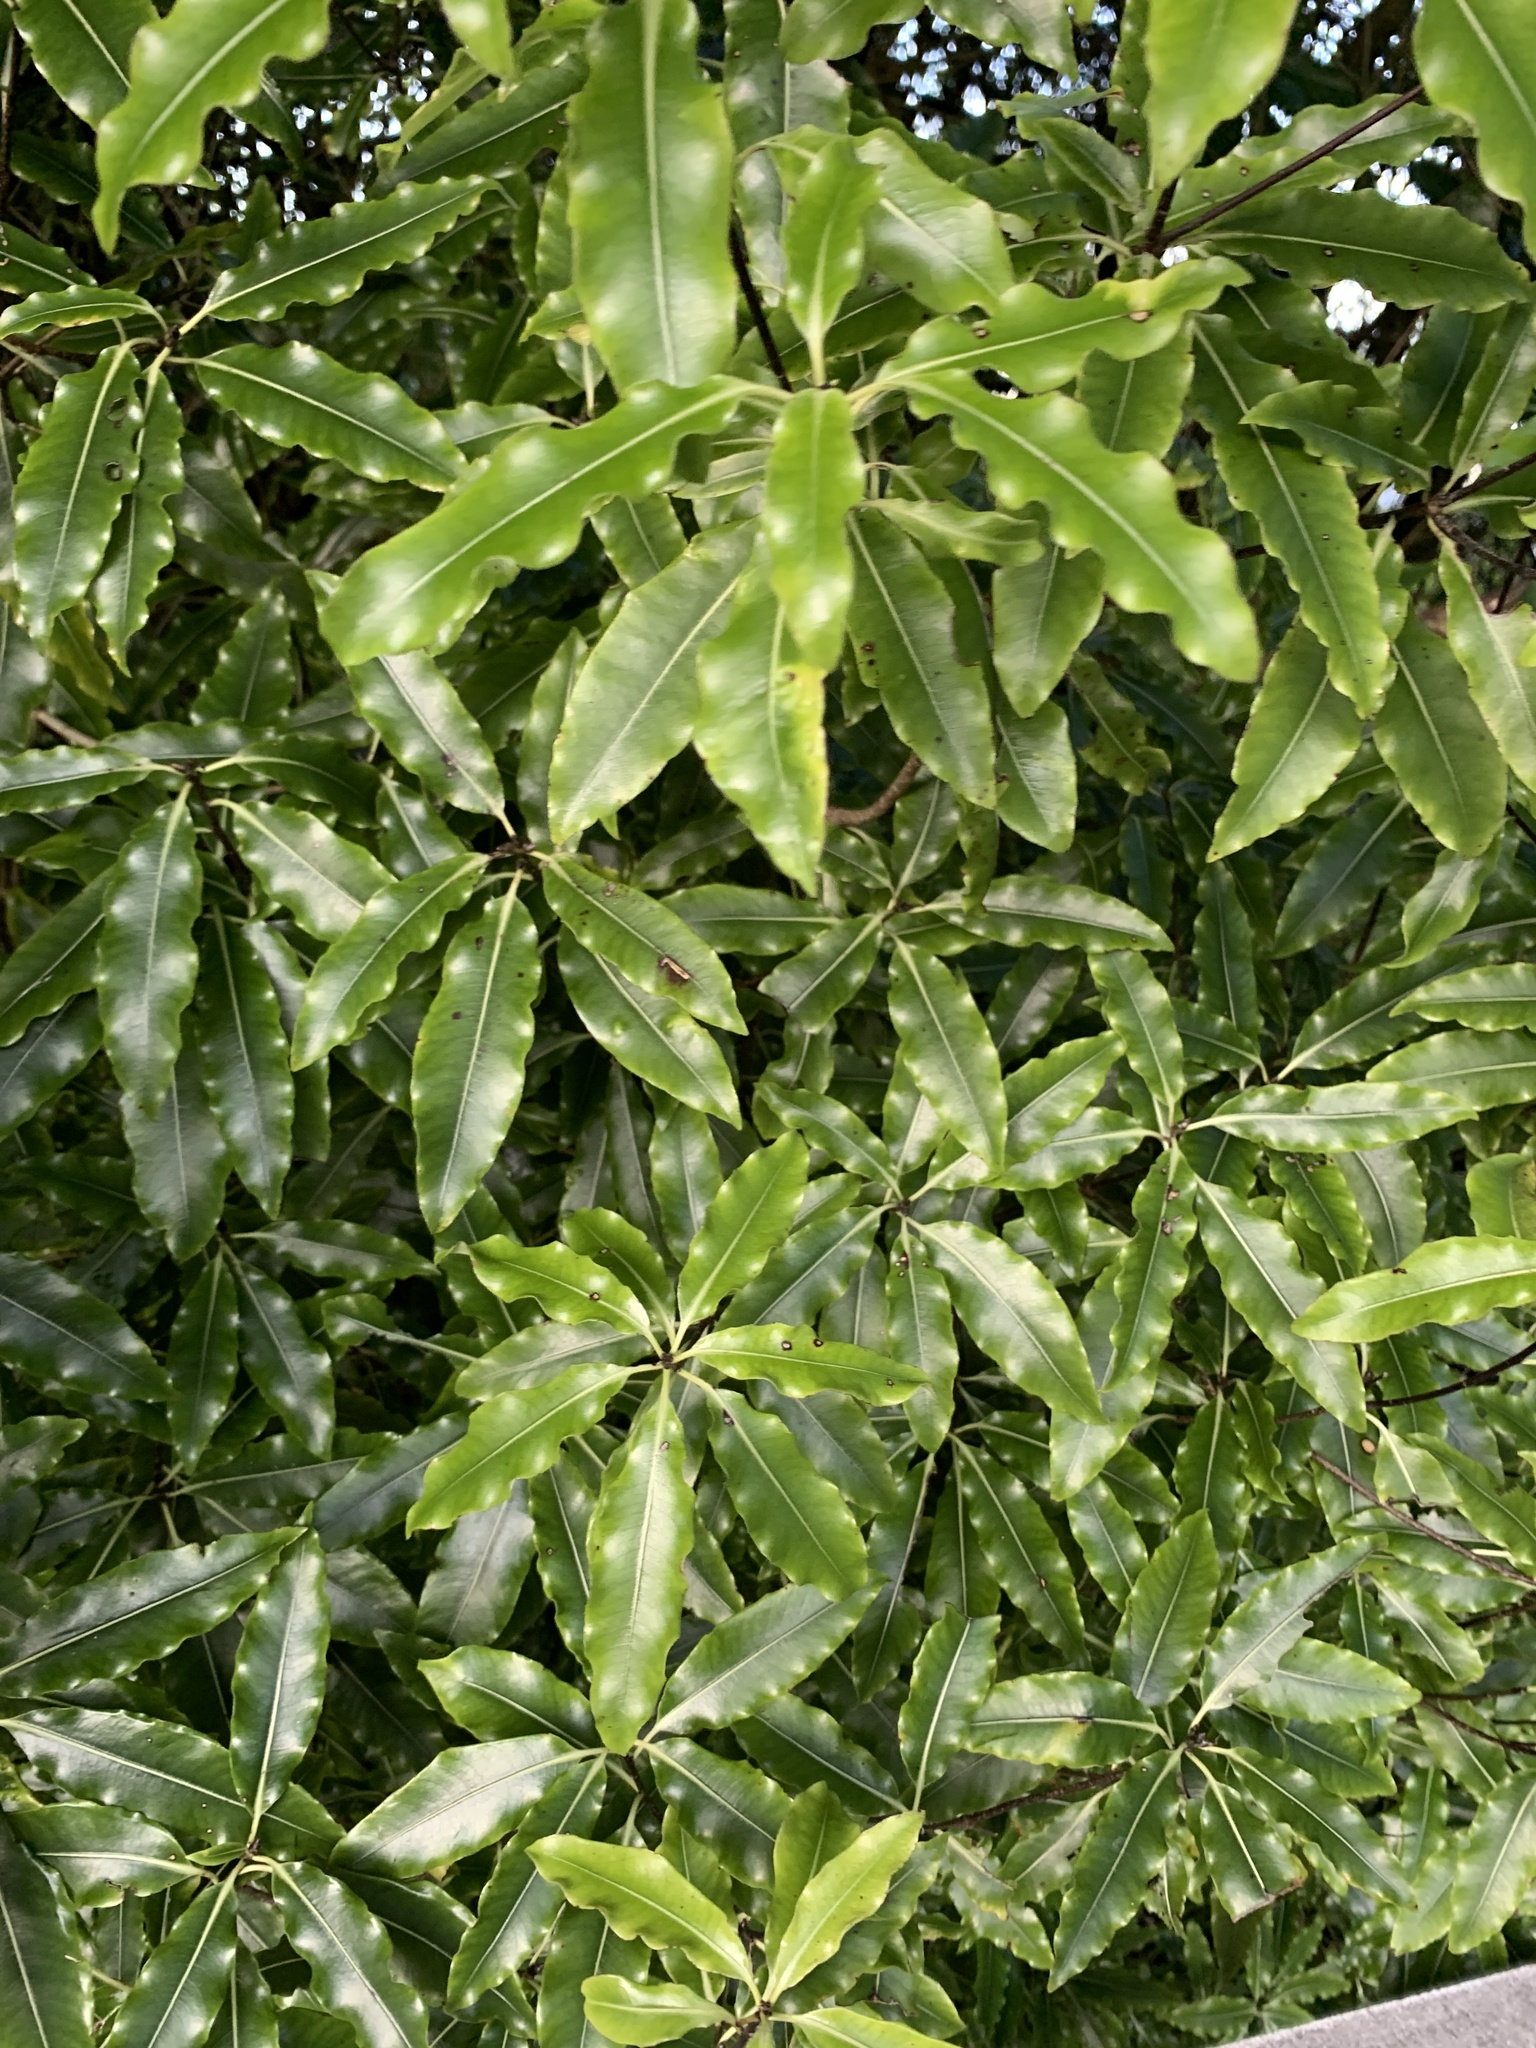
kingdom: Plantae
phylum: Tracheophyta
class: Magnoliopsida
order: Apiales
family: Pittosporaceae
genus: Pittosporum
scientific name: Pittosporum eugenioides
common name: Lemonwood
